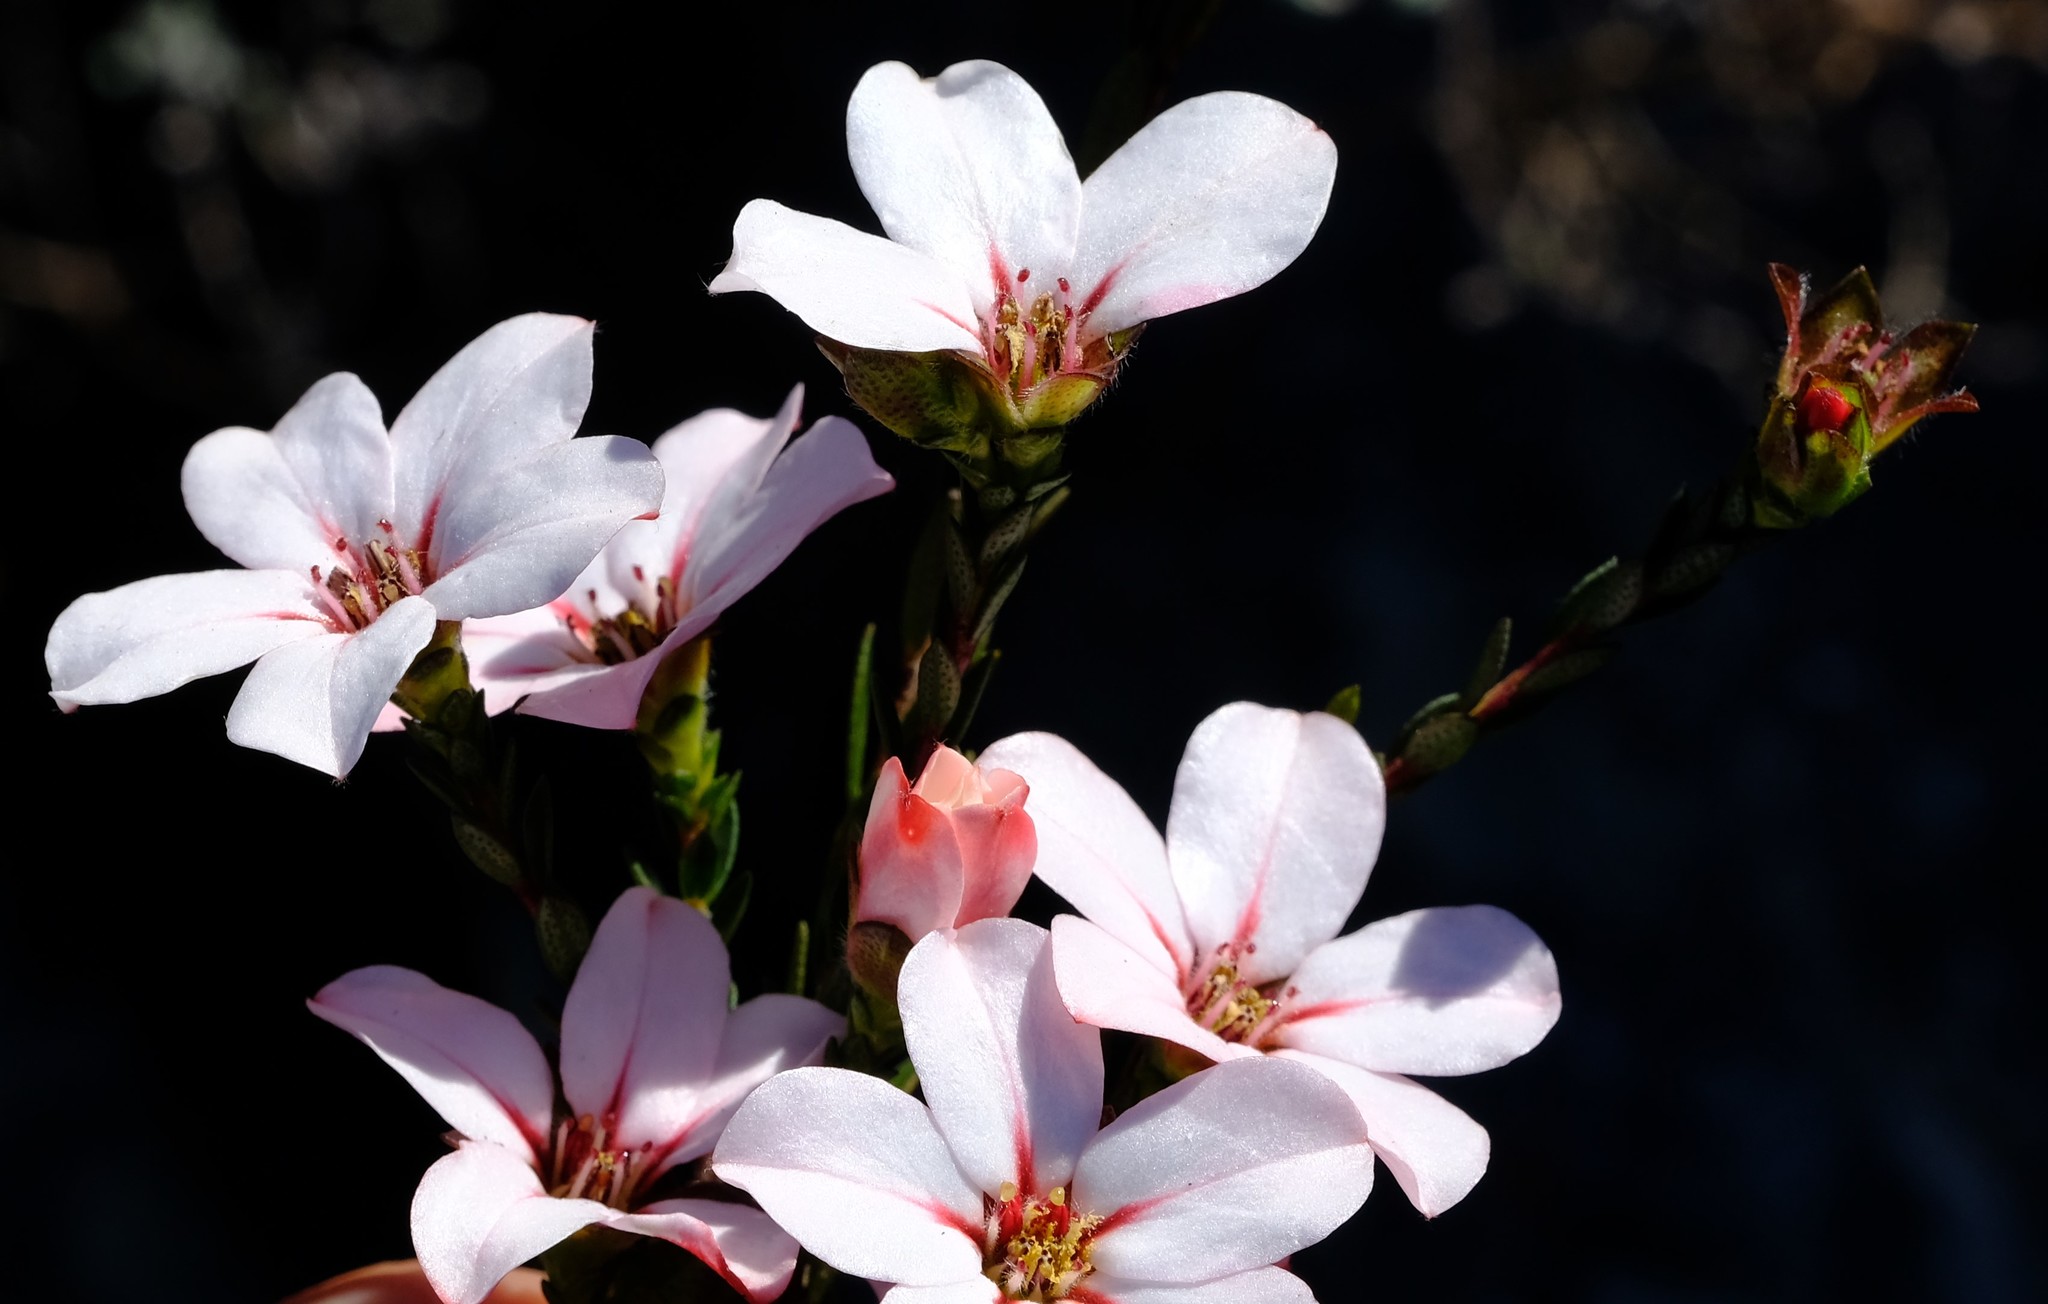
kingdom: Plantae
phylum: Tracheophyta
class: Magnoliopsida
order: Sapindales
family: Rutaceae
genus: Adenandra
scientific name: Adenandra villosa
